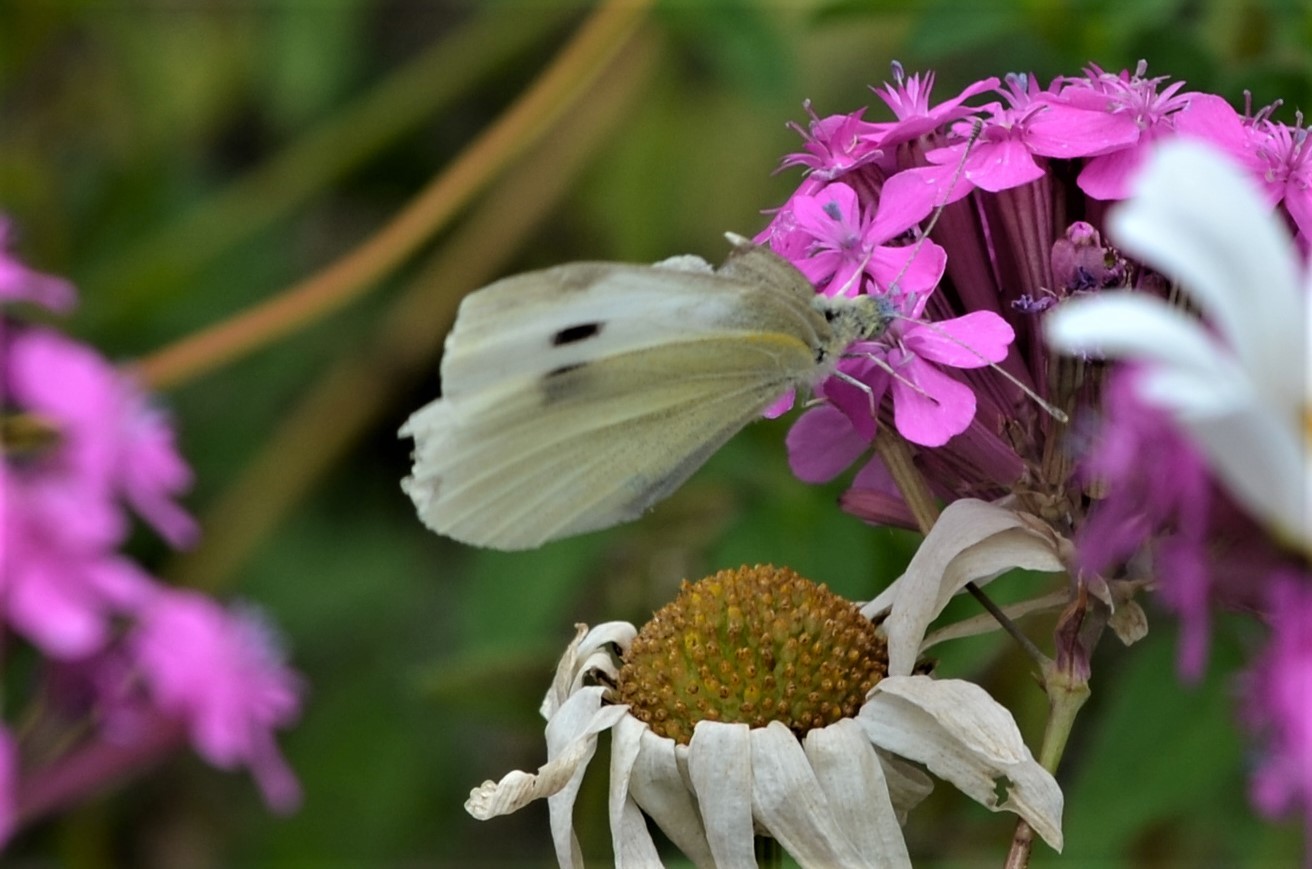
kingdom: Animalia
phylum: Arthropoda
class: Insecta
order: Lepidoptera
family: Pieridae
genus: Pieris
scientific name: Pieris rapae
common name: Small white
